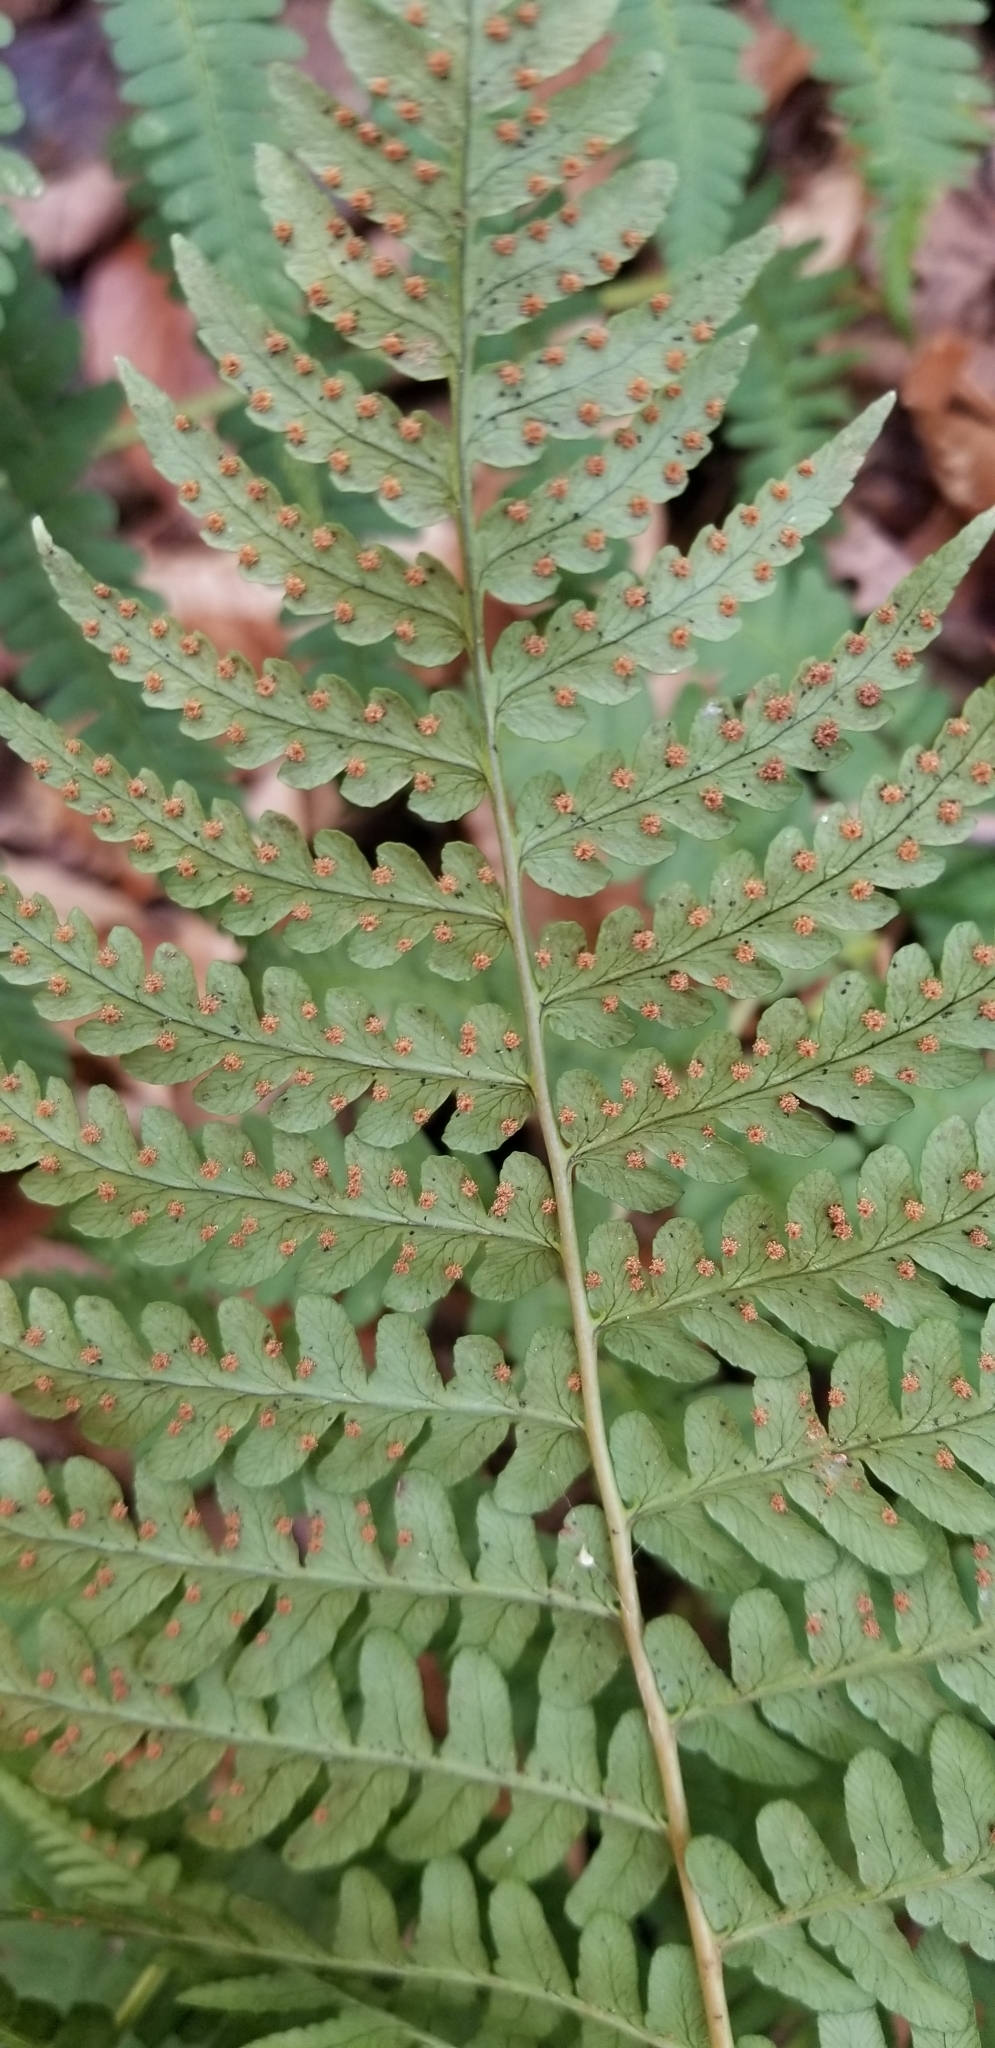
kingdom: Plantae
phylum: Tracheophyta
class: Polypodiopsida
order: Polypodiales
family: Dryopteridaceae
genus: Dryopteris
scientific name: Dryopteris marginalis
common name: Marginal wood fern
